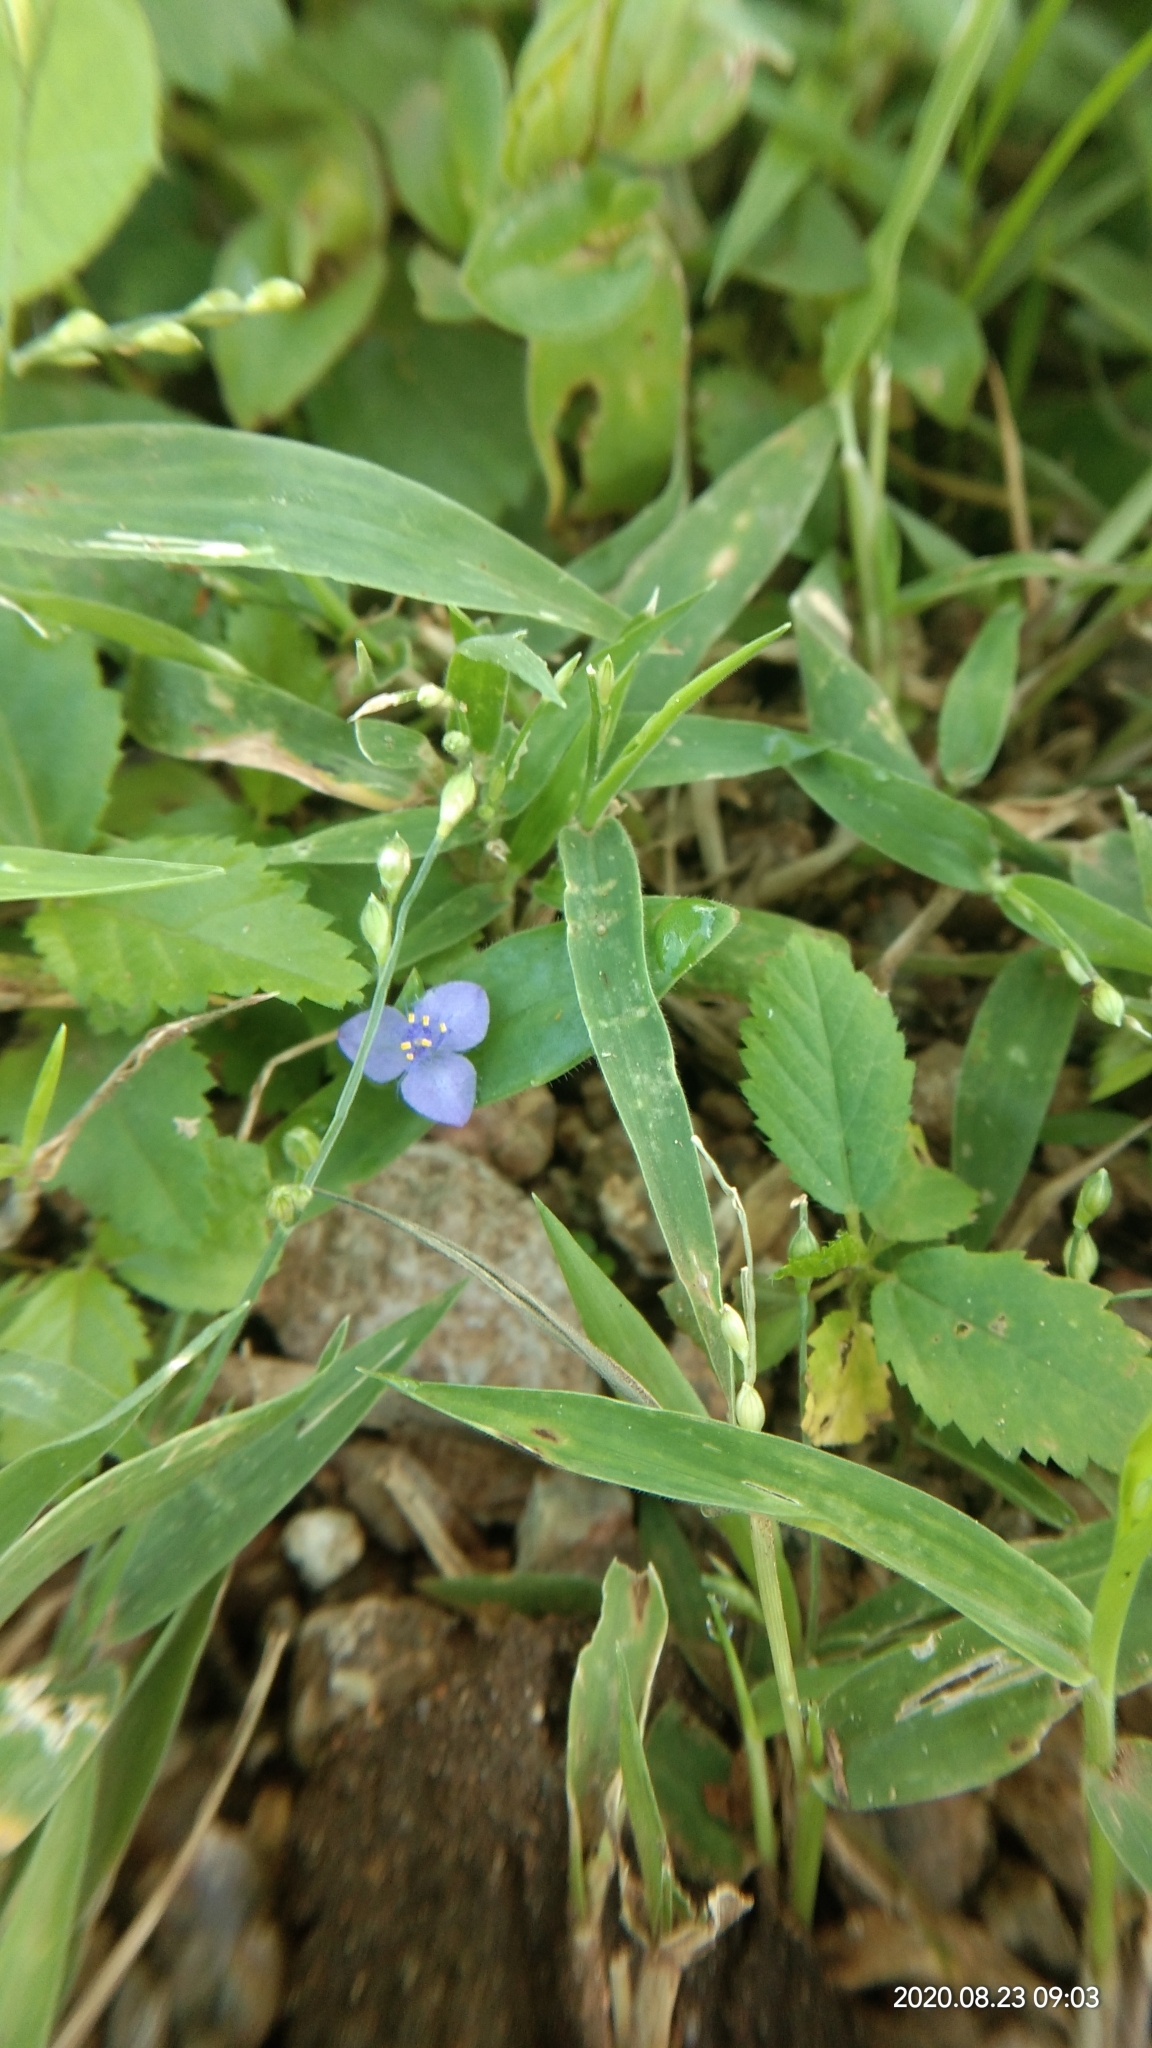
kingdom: Plantae
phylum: Tracheophyta
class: Liliopsida
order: Commelinales
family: Commelinaceae
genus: Cyanotis
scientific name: Cyanotis cristata
